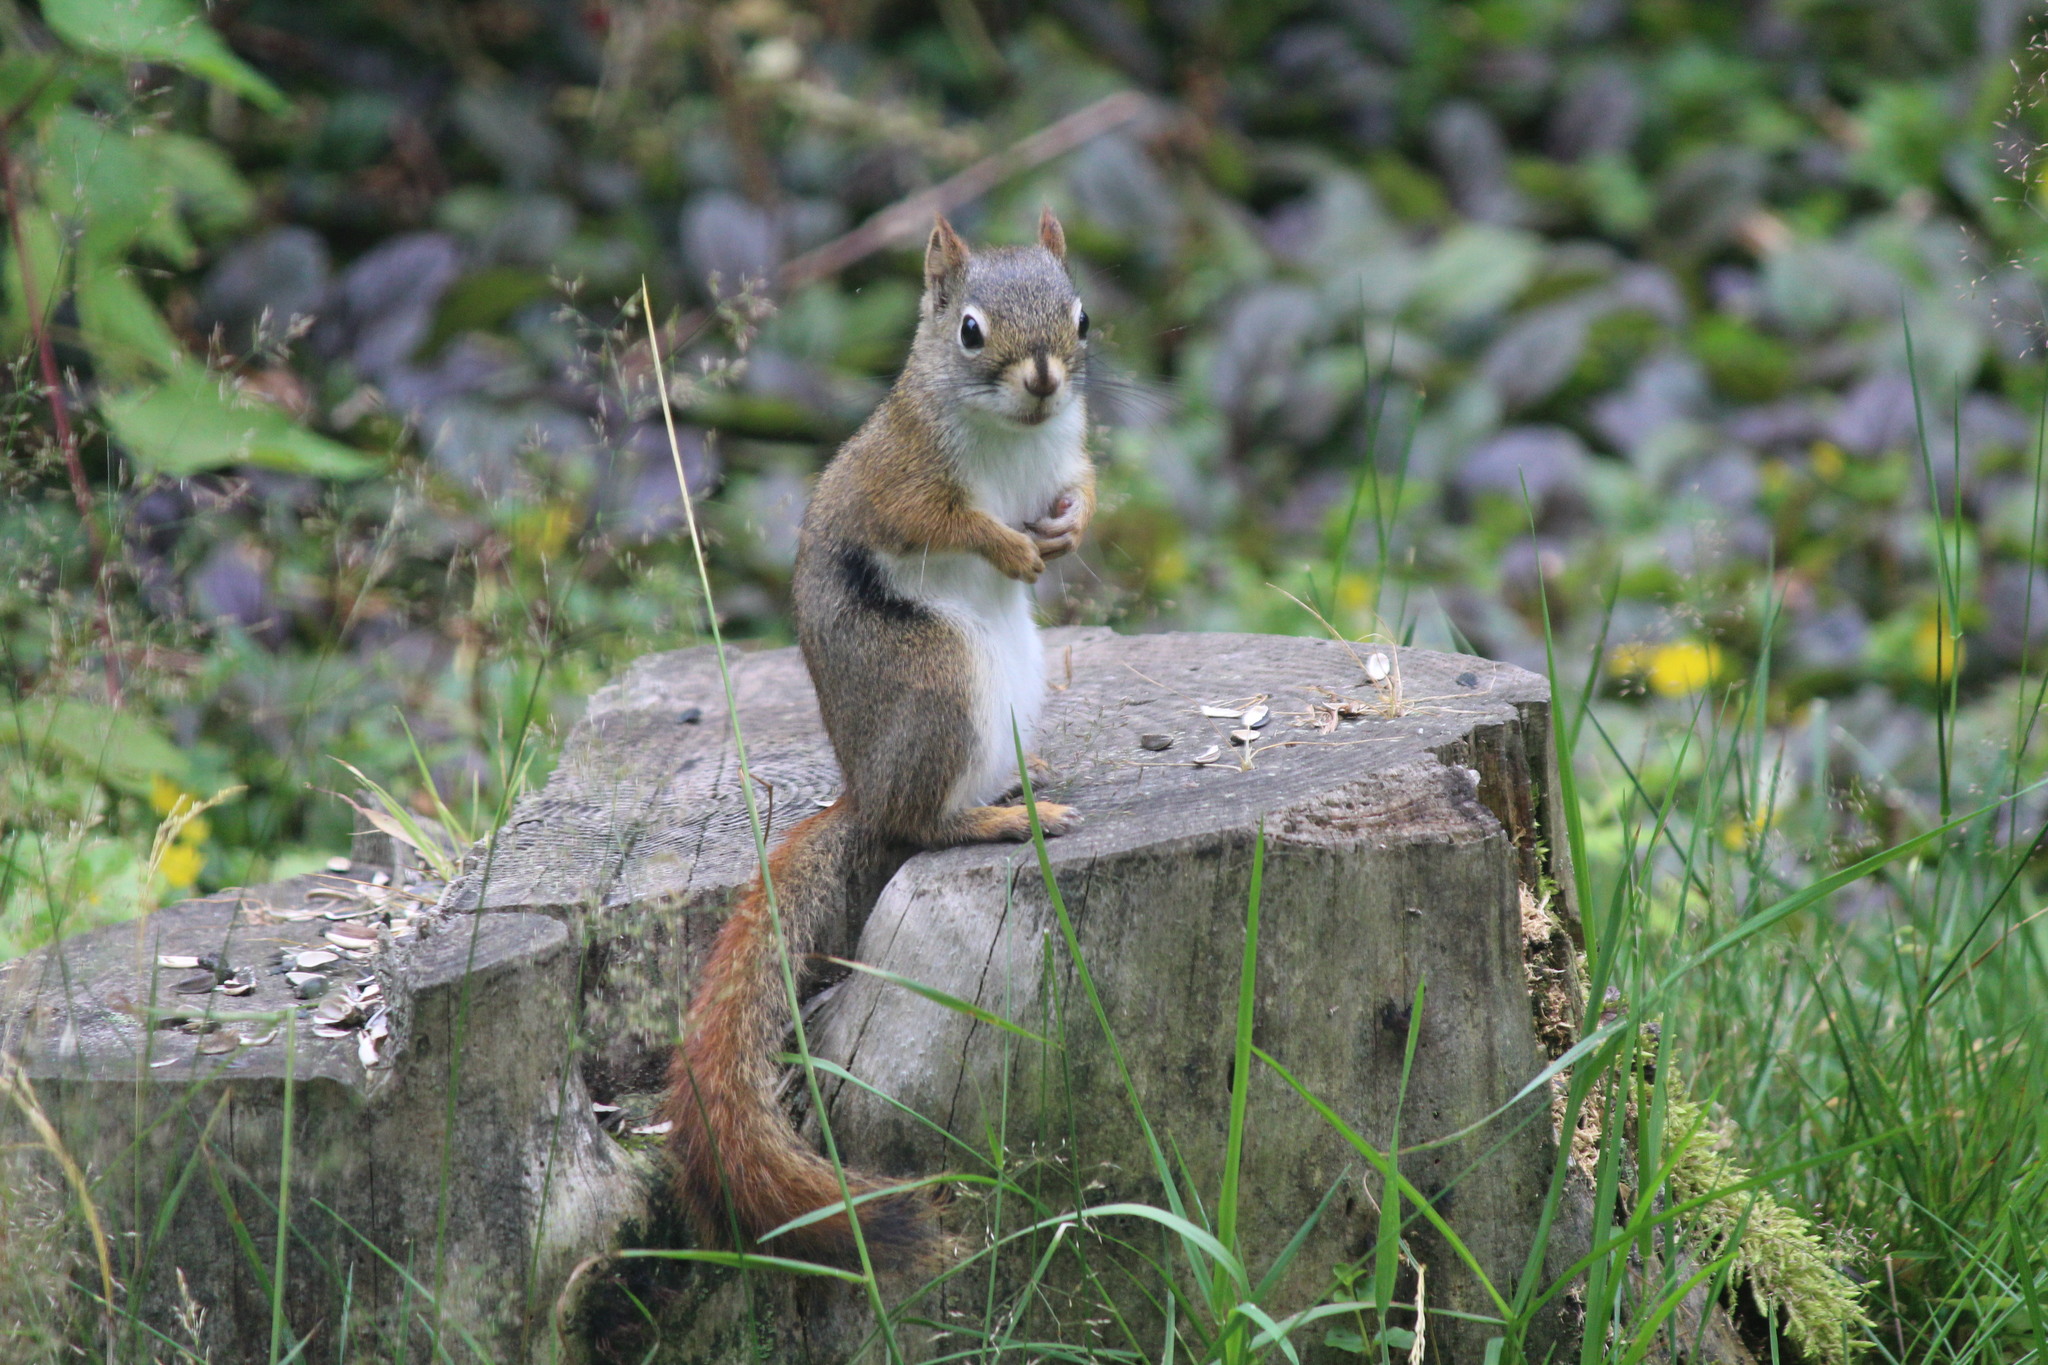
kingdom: Animalia
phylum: Chordata
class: Mammalia
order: Rodentia
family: Sciuridae
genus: Tamiasciurus
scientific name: Tamiasciurus hudsonicus
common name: Red squirrel
